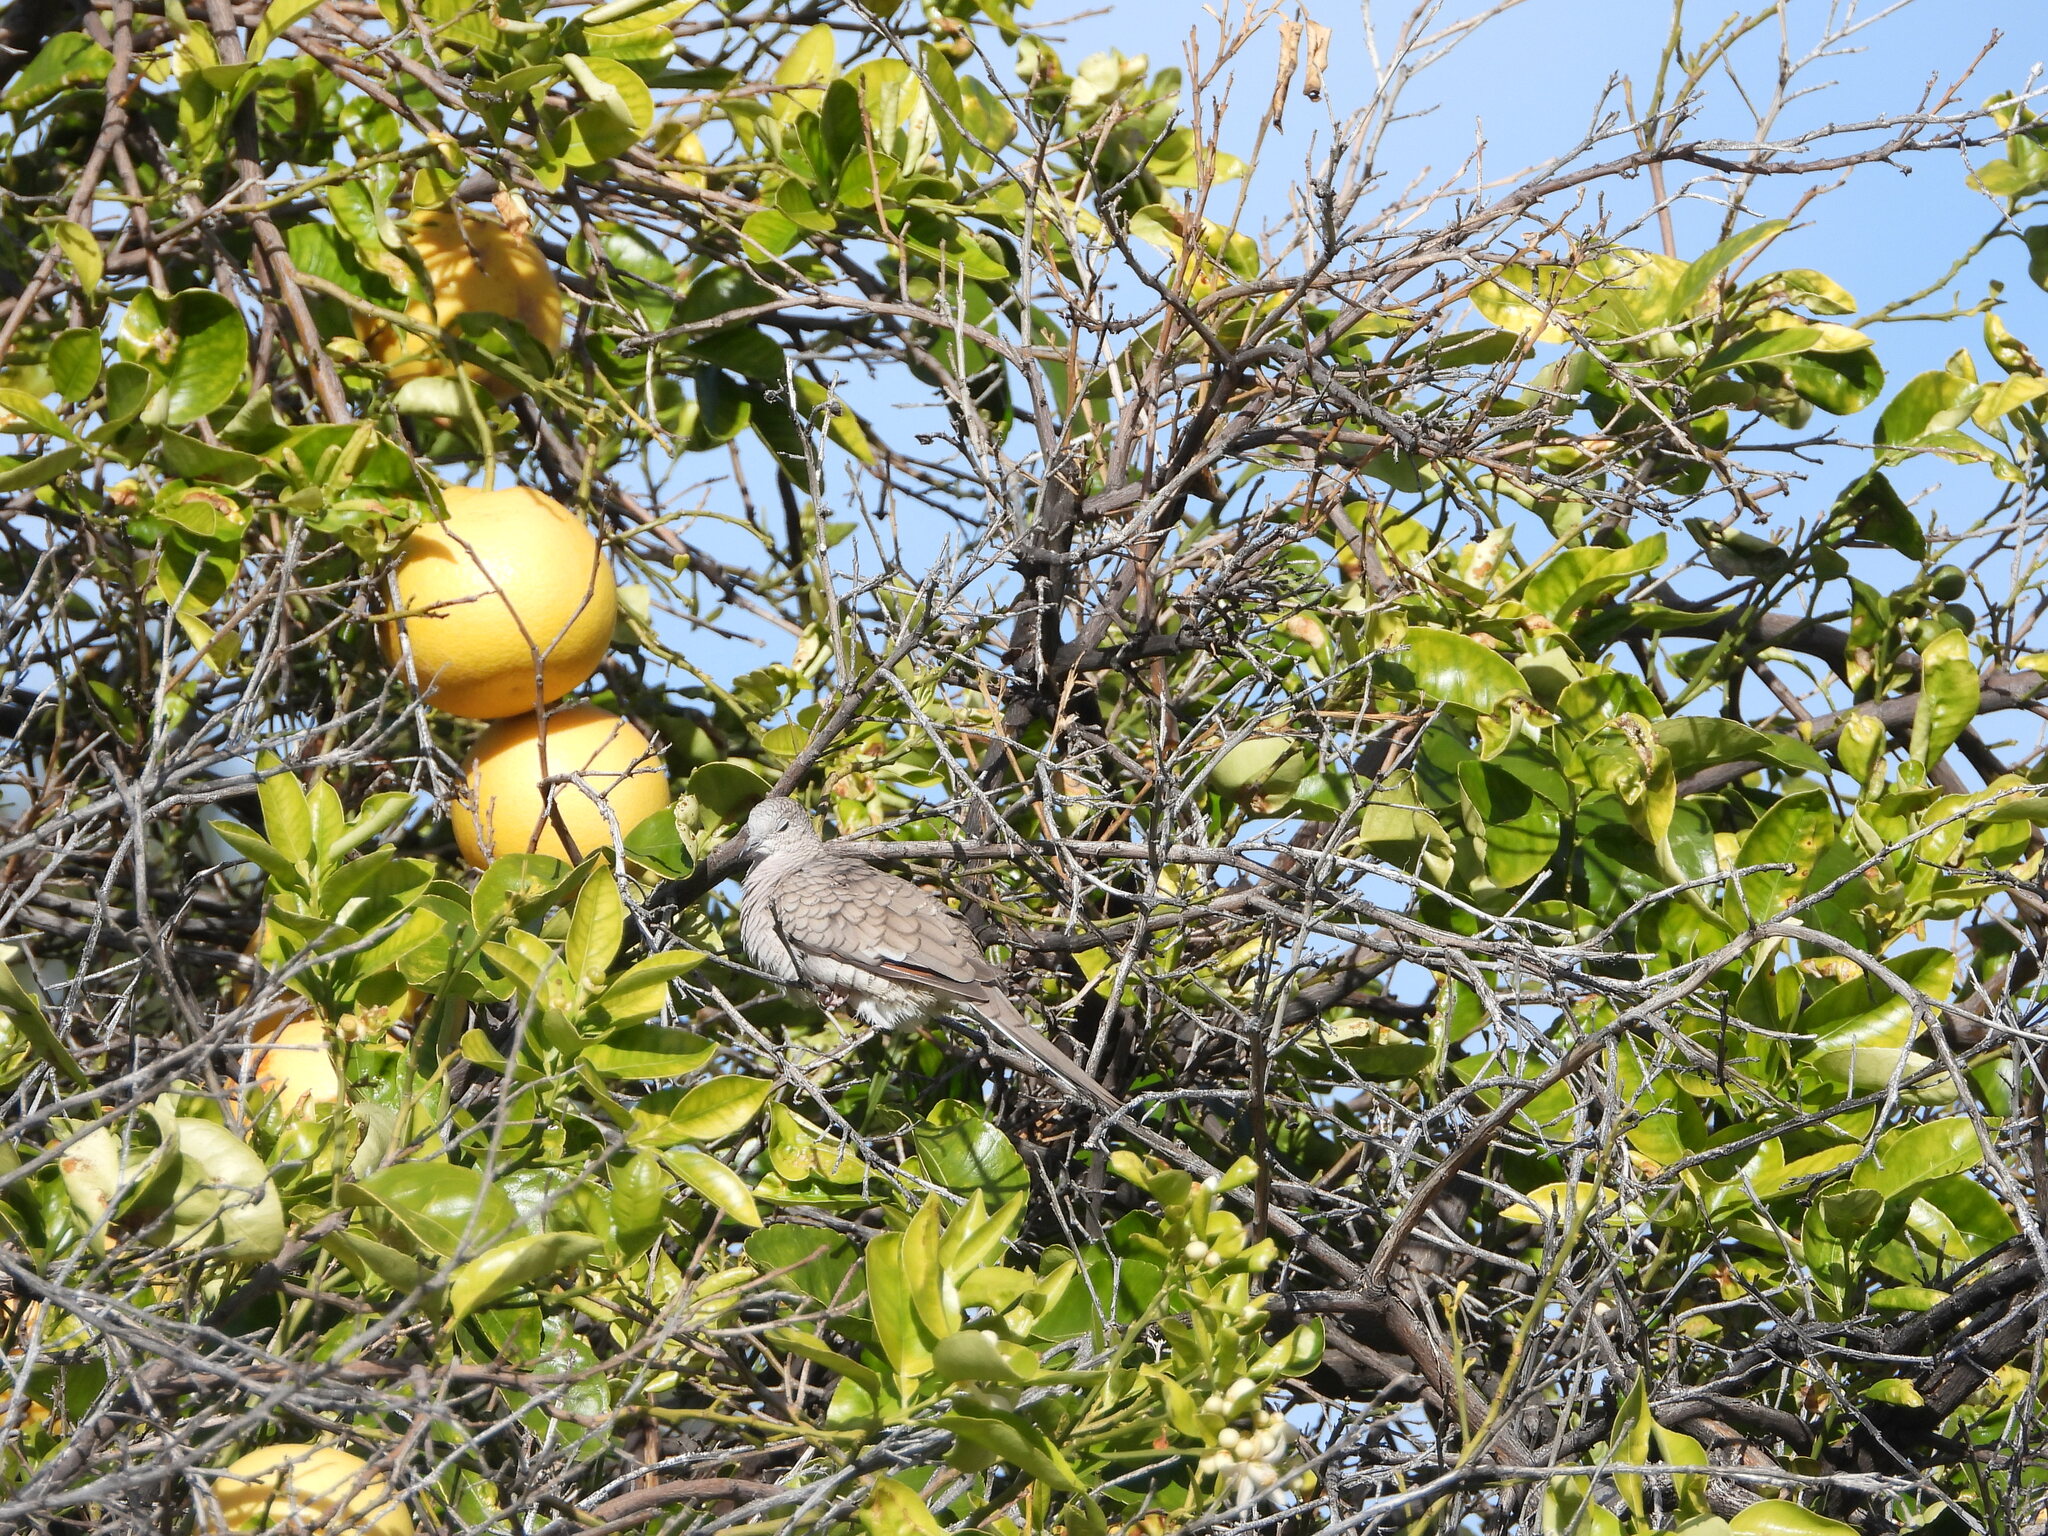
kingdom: Animalia
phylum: Chordata
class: Aves
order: Columbiformes
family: Columbidae
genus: Columbina
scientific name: Columbina inca
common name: Inca dove
